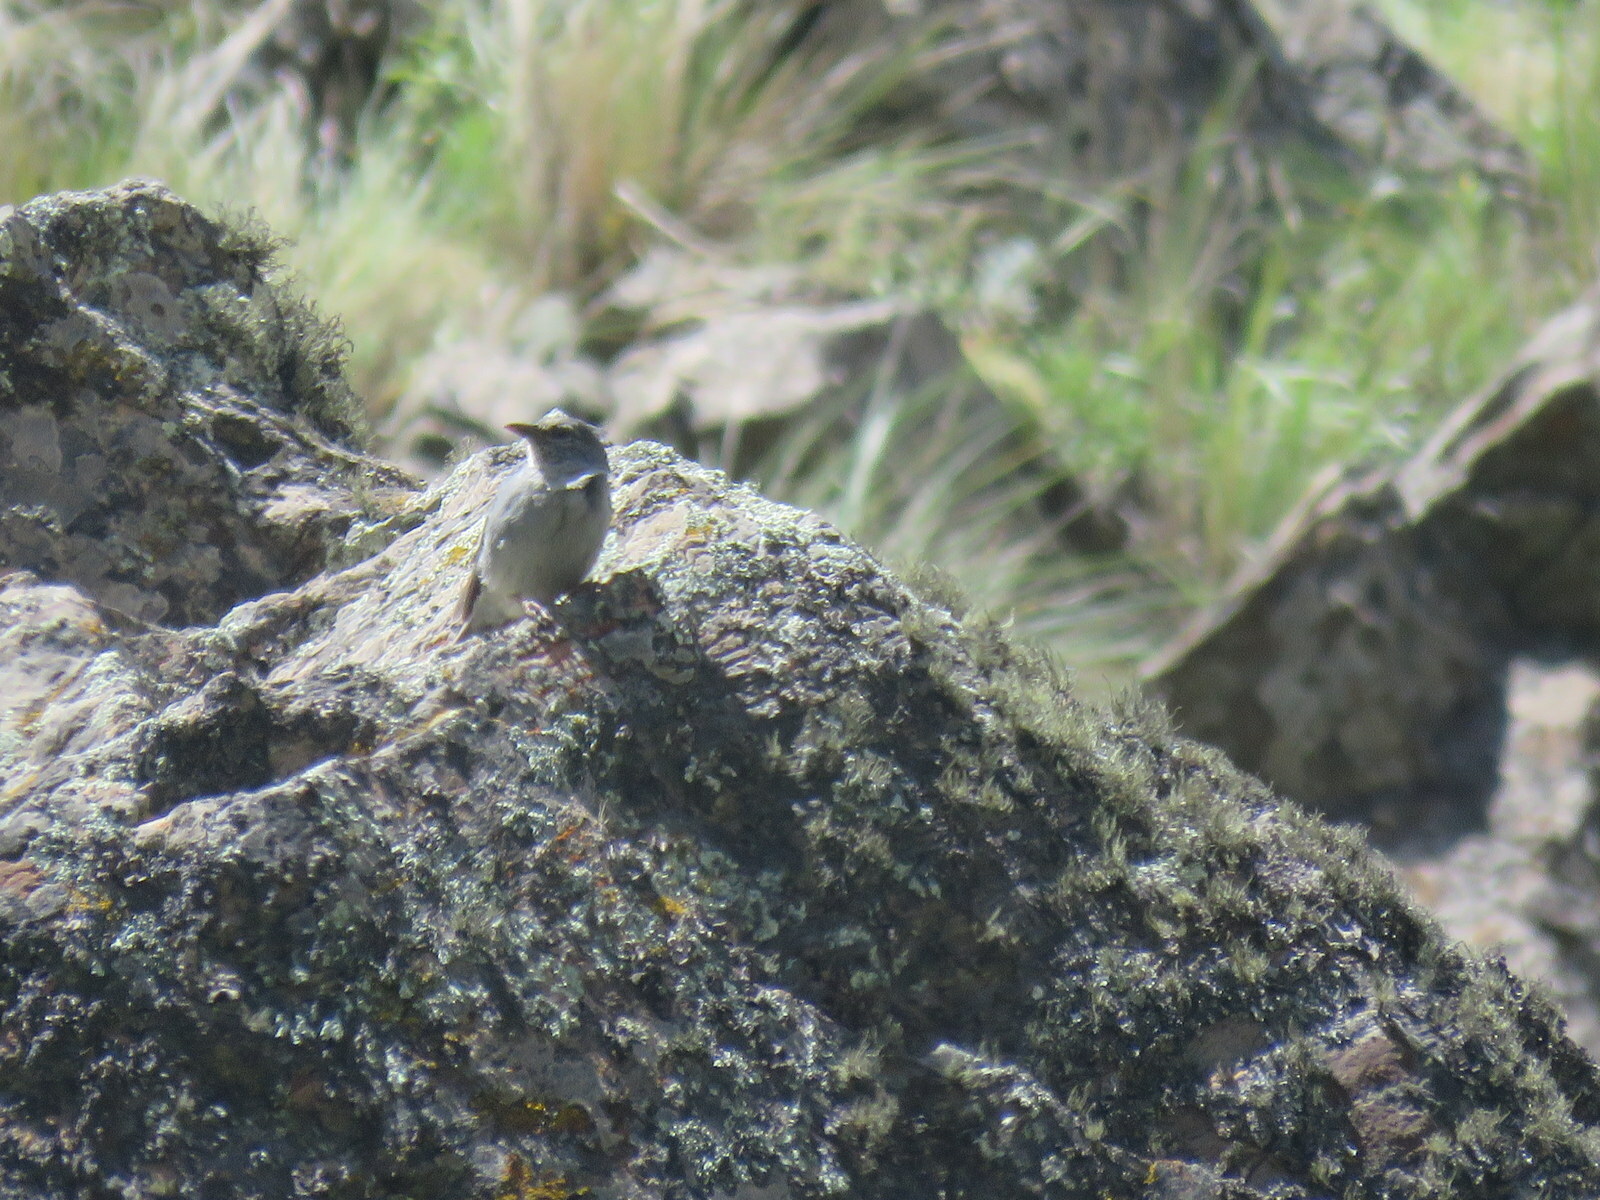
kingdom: Animalia
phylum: Chordata
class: Aves
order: Passeriformes
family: Thraupidae
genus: Idiopsar
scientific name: Idiopsar brachyurus
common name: Short-tailed finch
